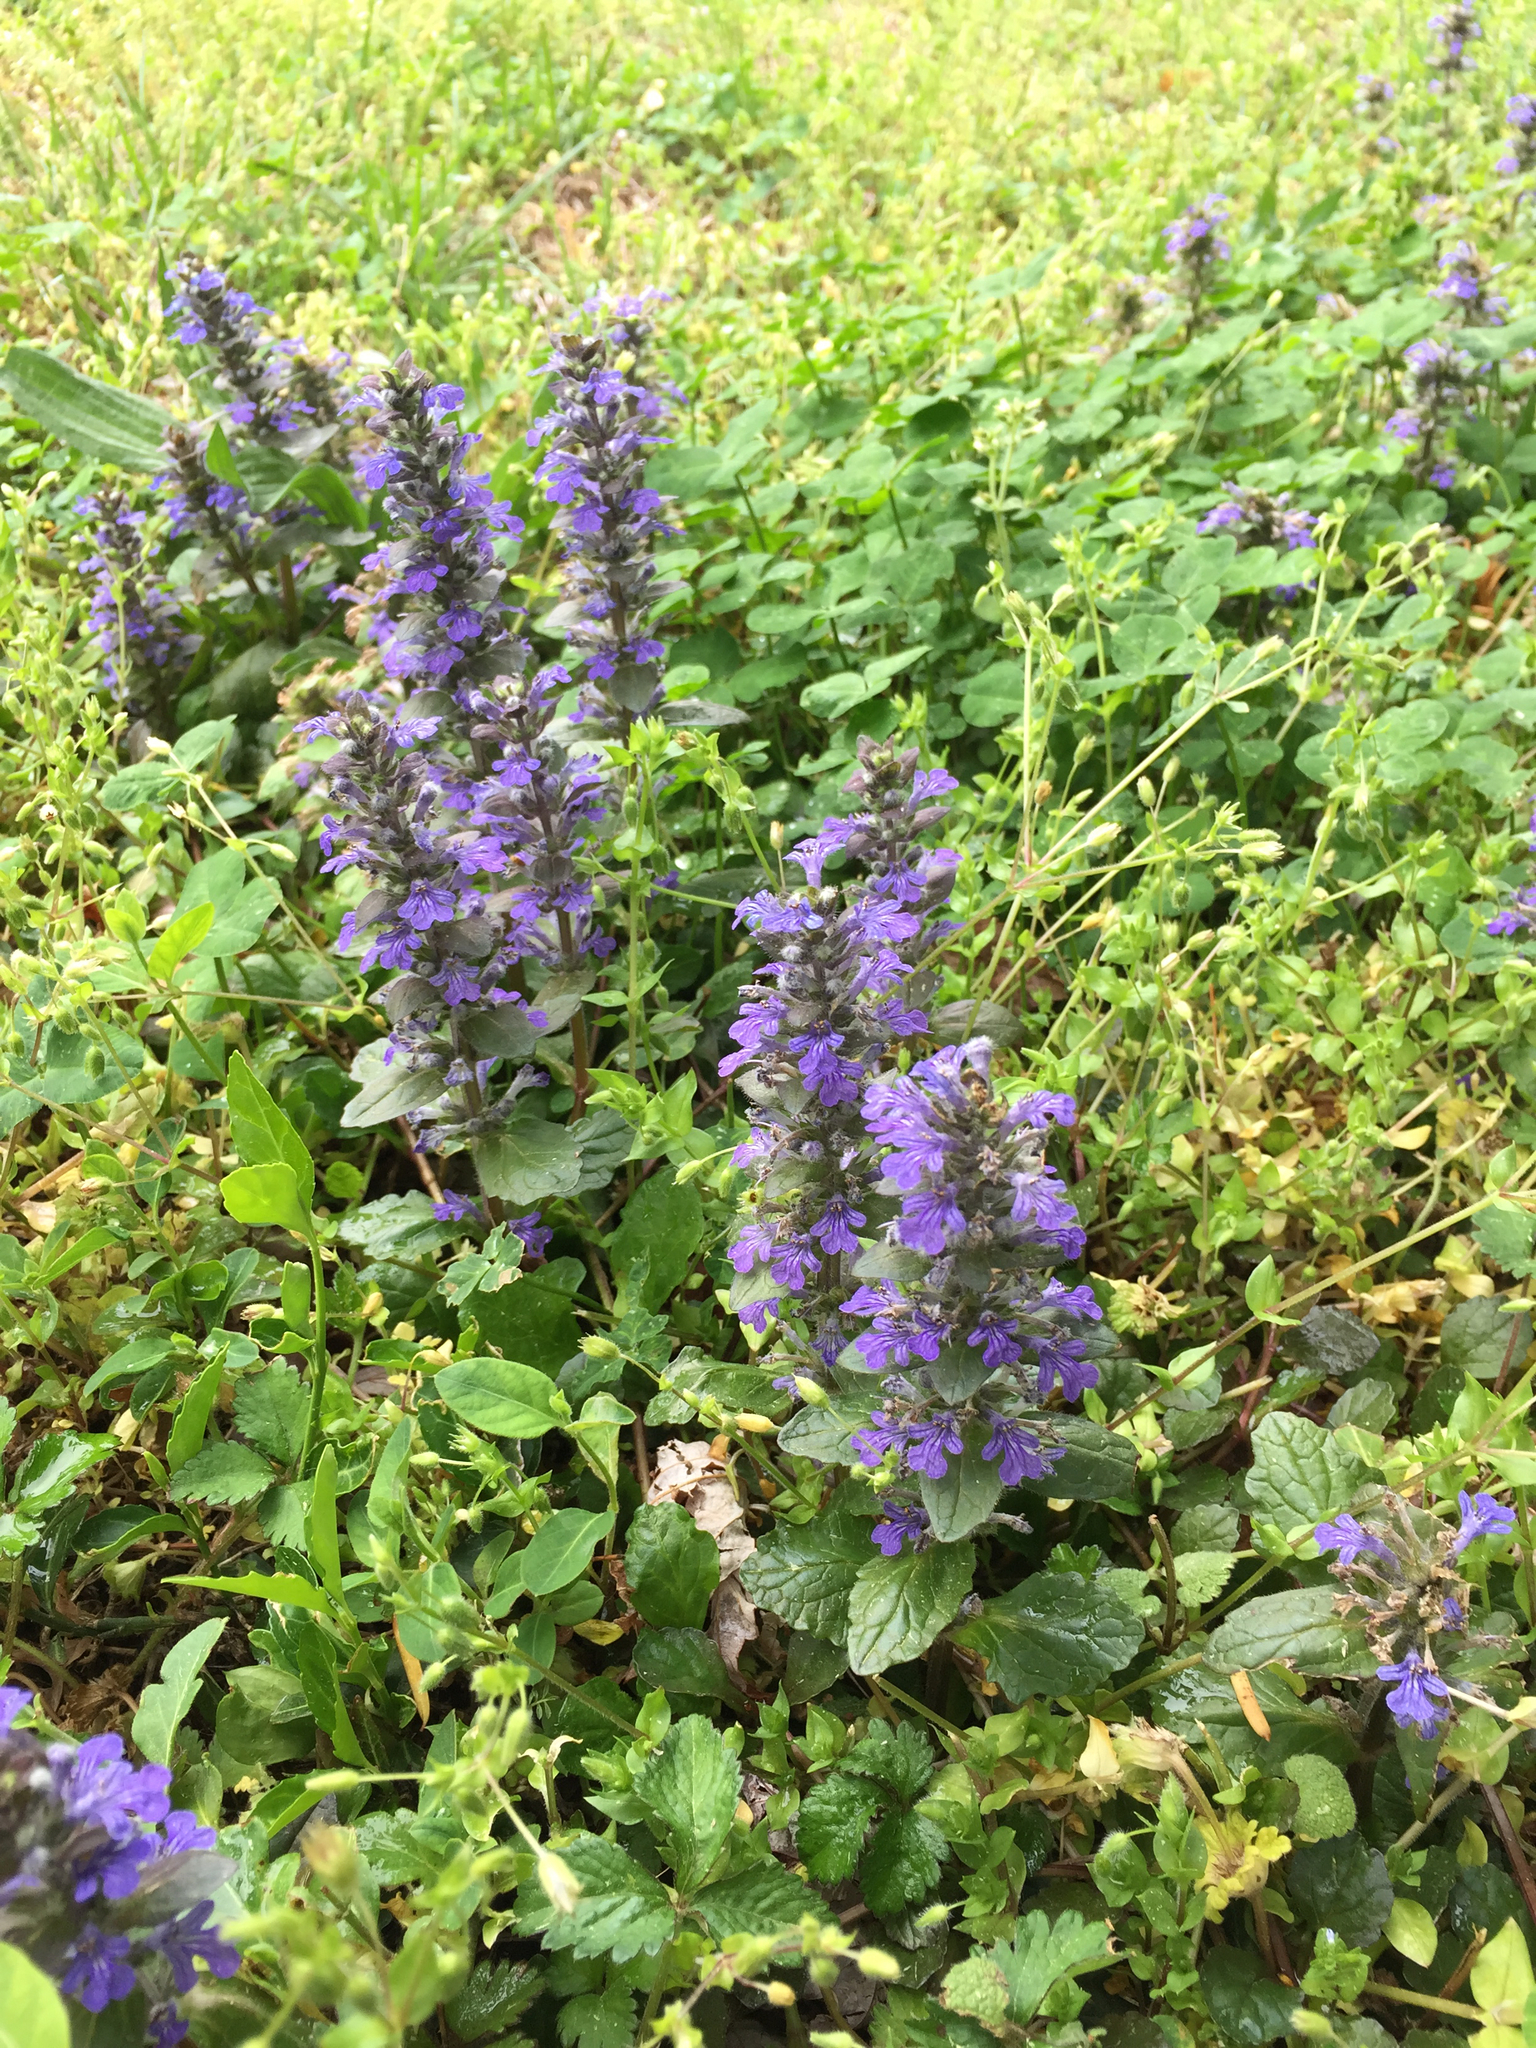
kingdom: Plantae
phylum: Tracheophyta
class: Magnoliopsida
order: Lamiales
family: Lamiaceae
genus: Ajuga
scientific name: Ajuga reptans
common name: Bugle
